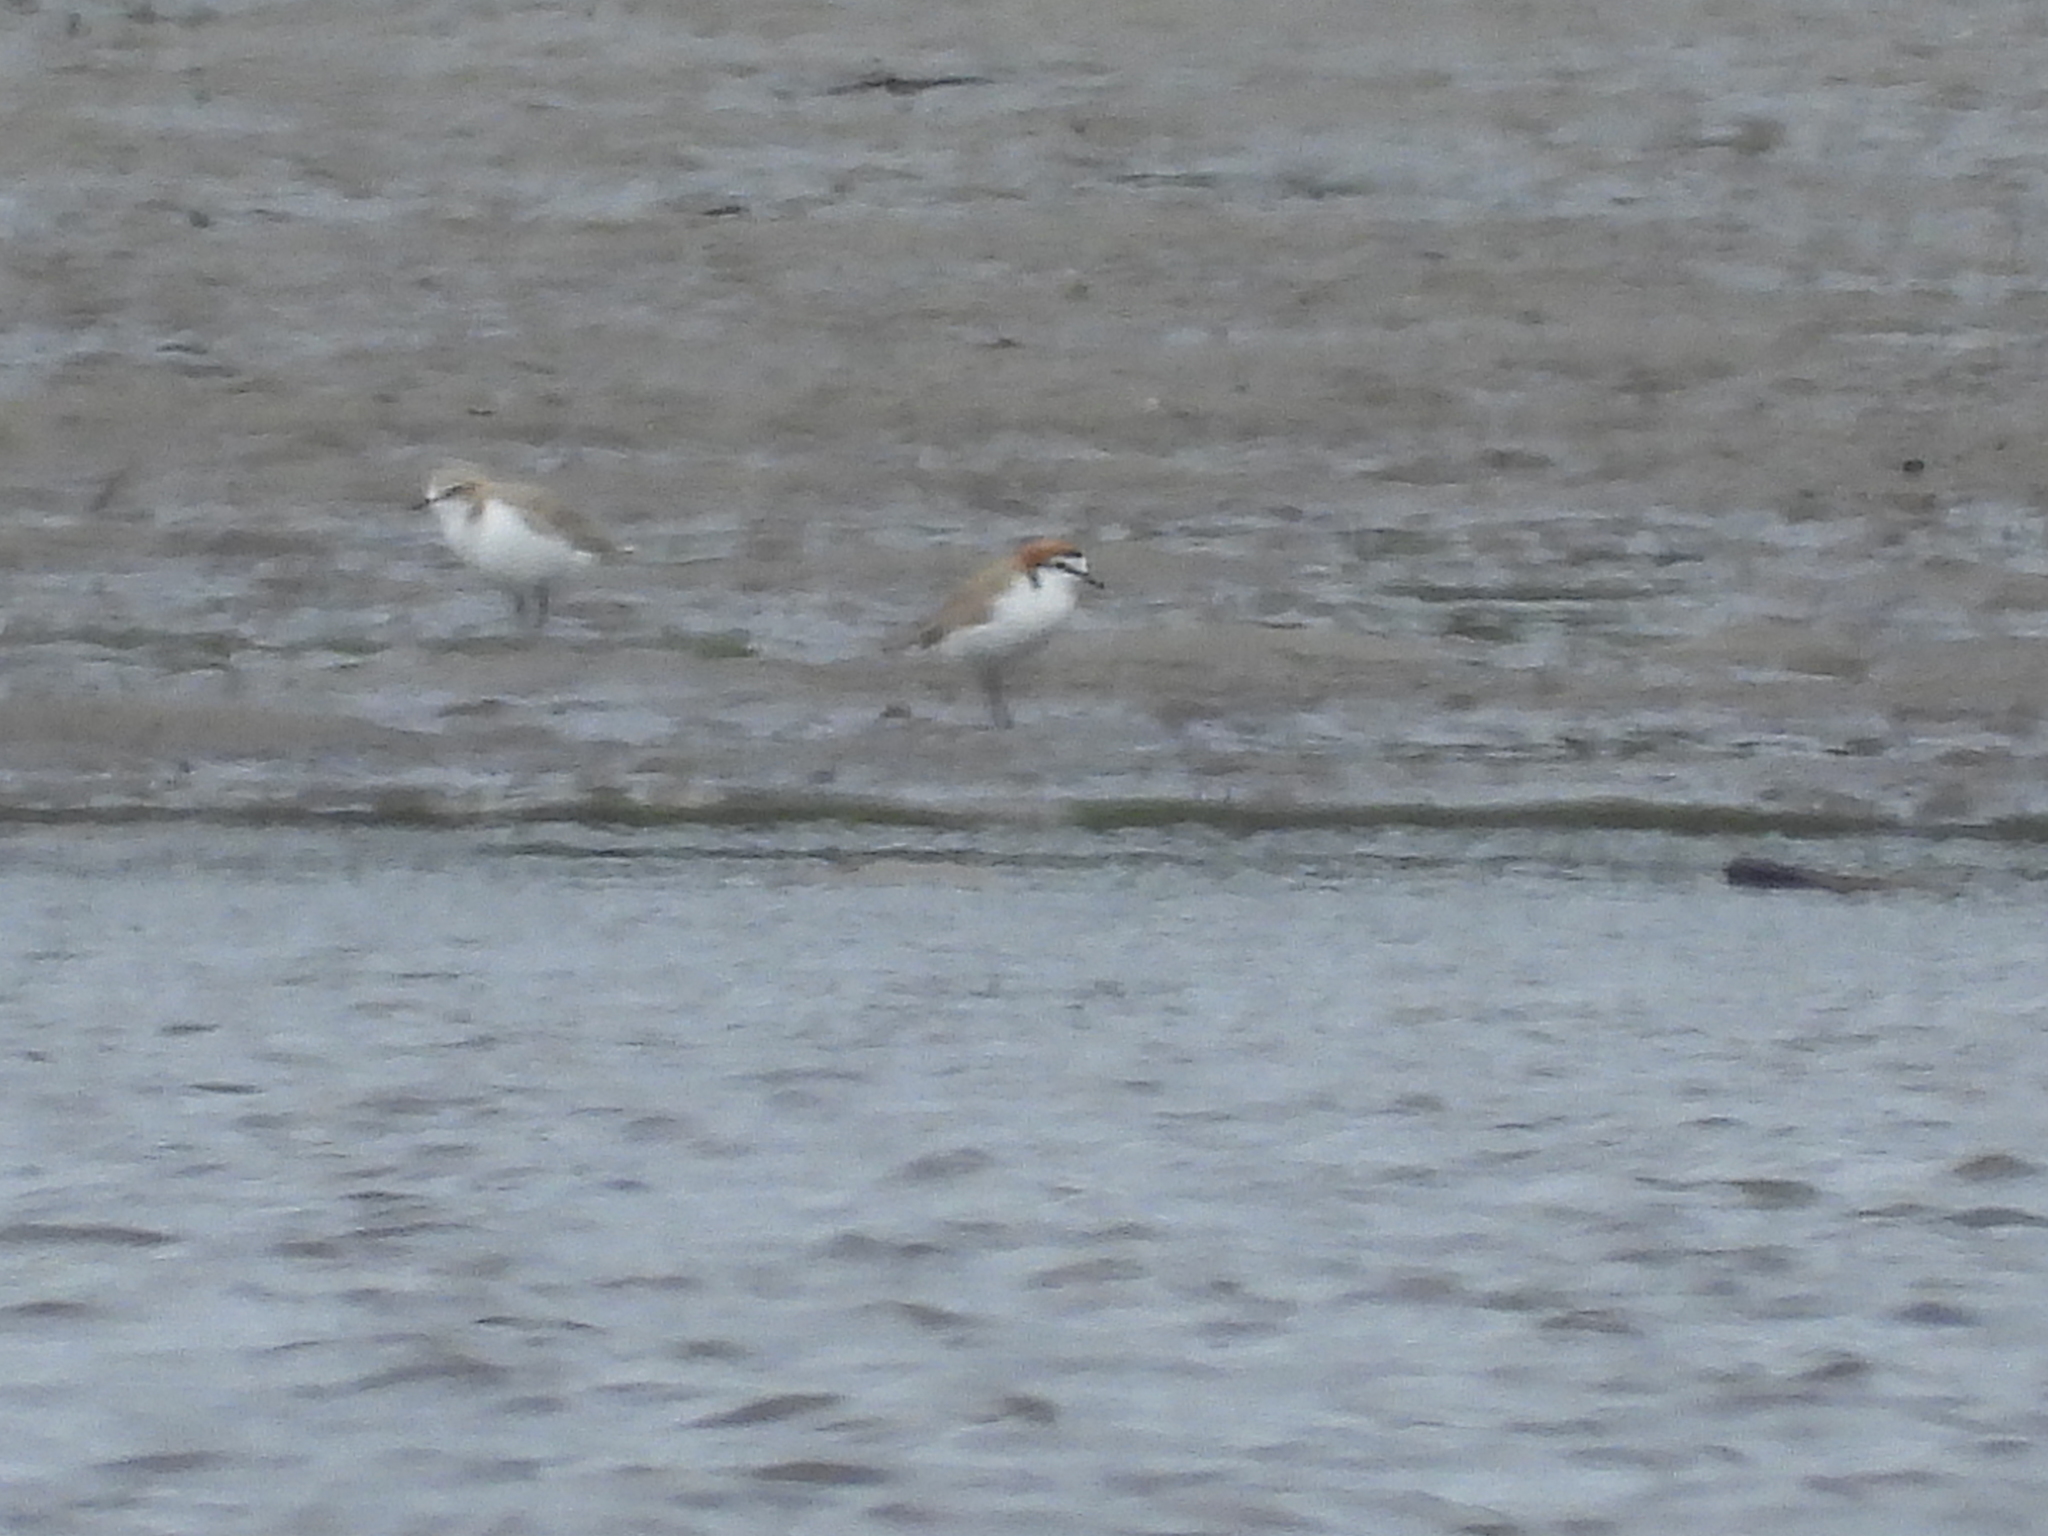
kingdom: Animalia
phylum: Chordata
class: Aves
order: Charadriiformes
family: Charadriidae
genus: Anarhynchus
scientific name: Anarhynchus
